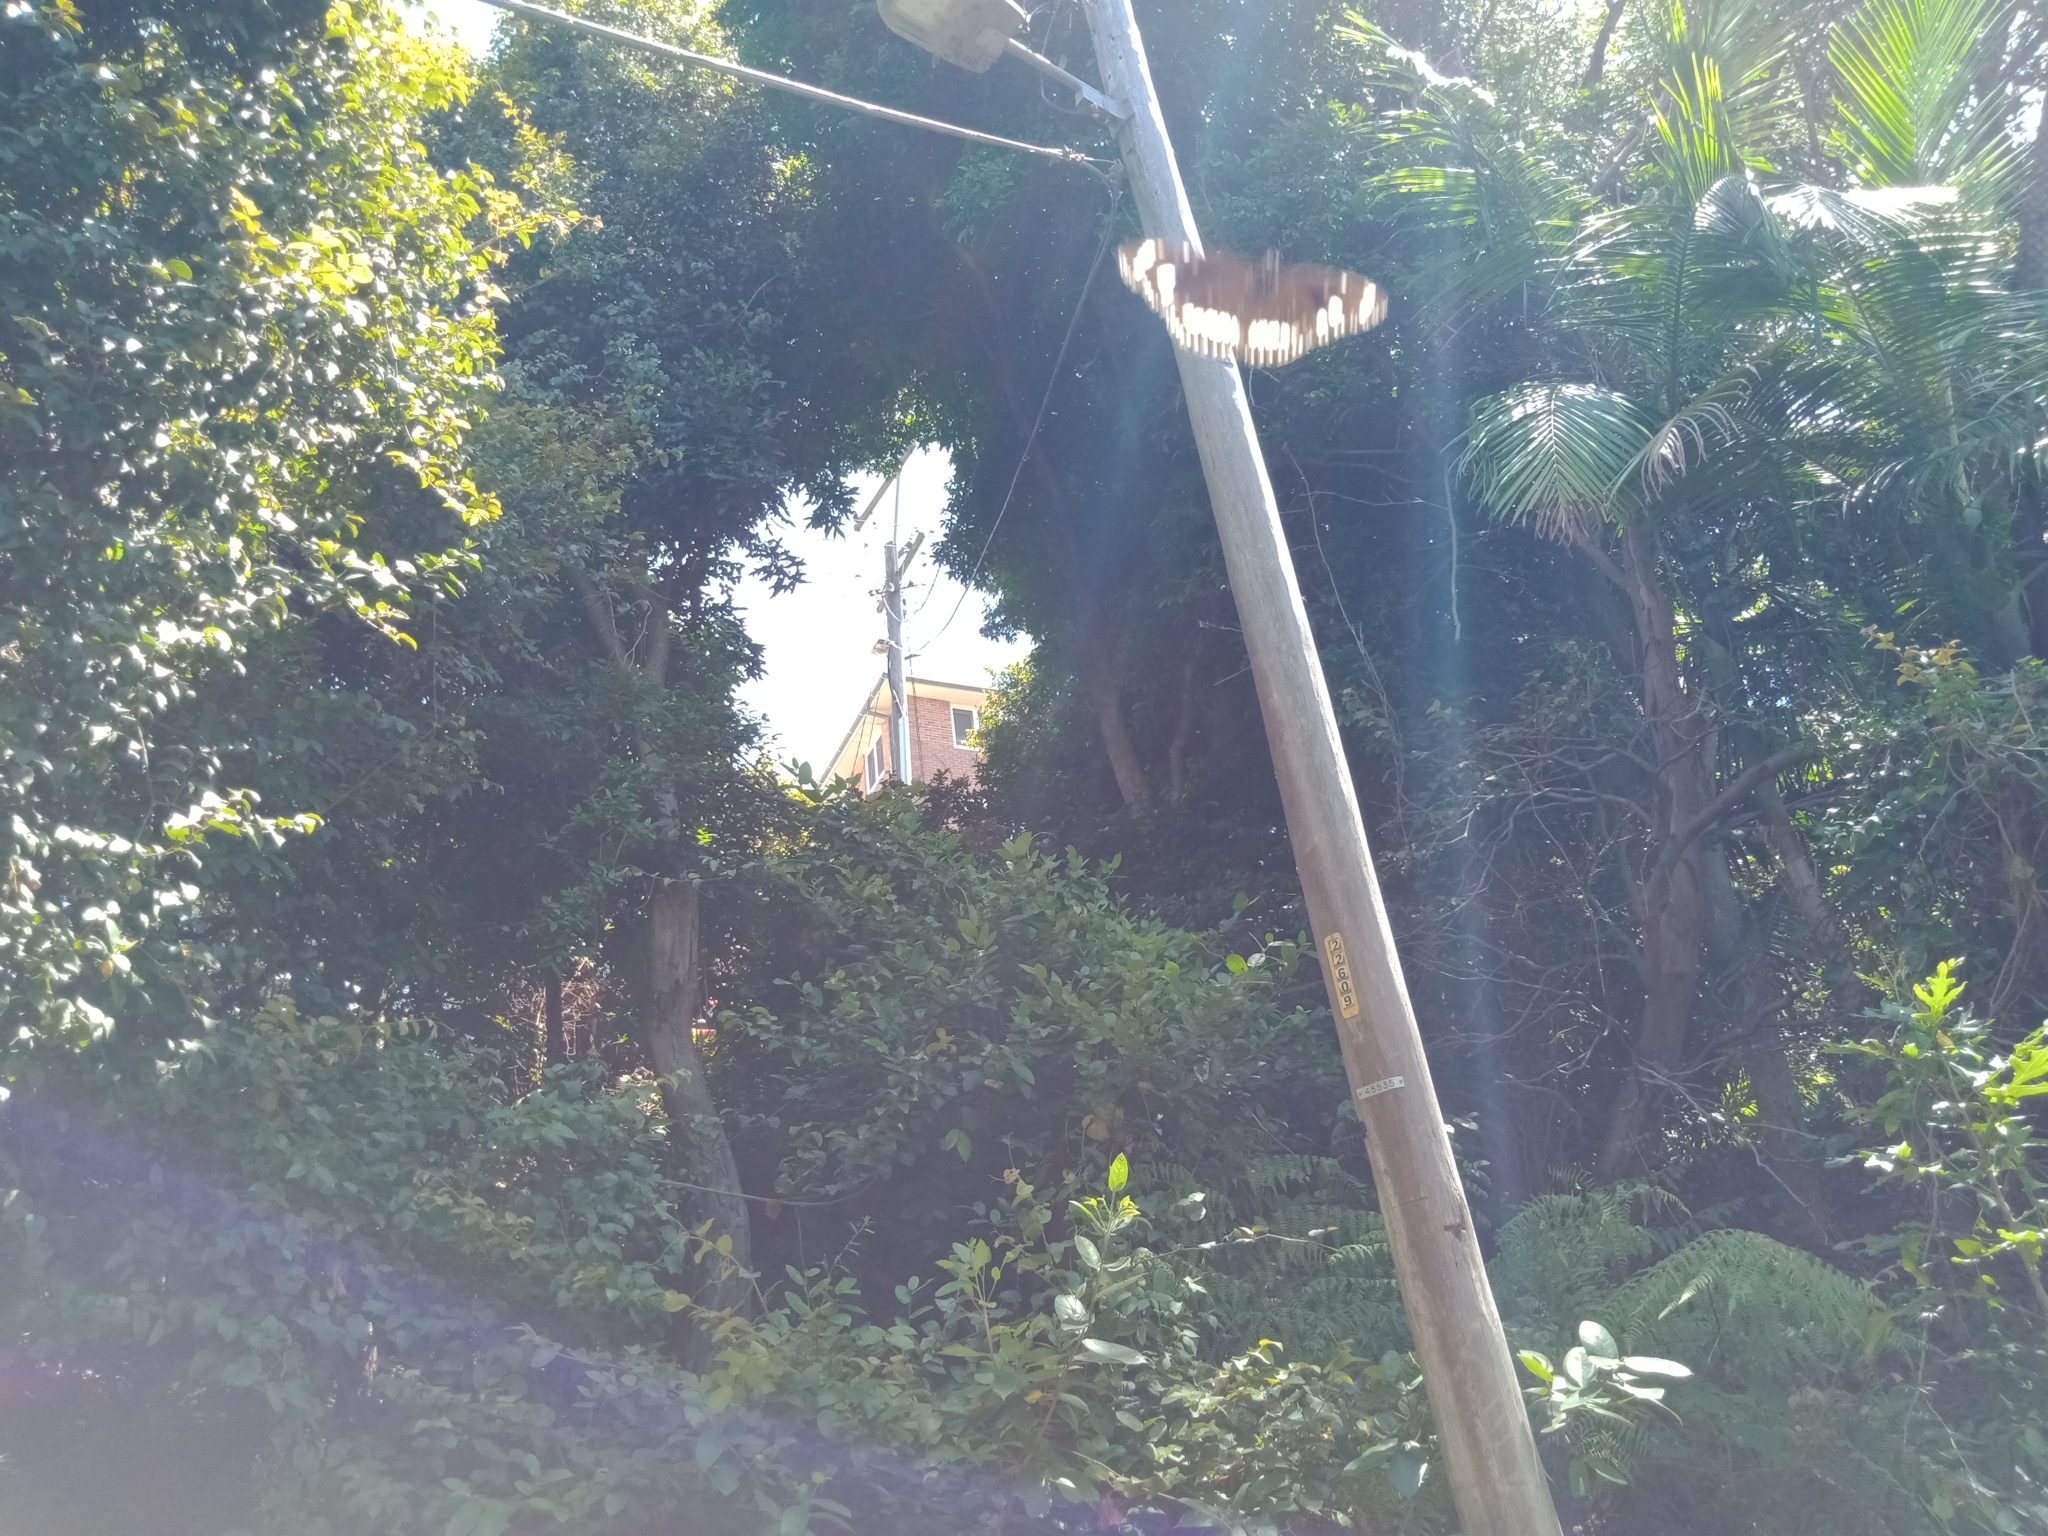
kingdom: Animalia
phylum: Arthropoda
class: Insecta
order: Lepidoptera
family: Nymphalidae
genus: Euploea
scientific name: Euploea core
